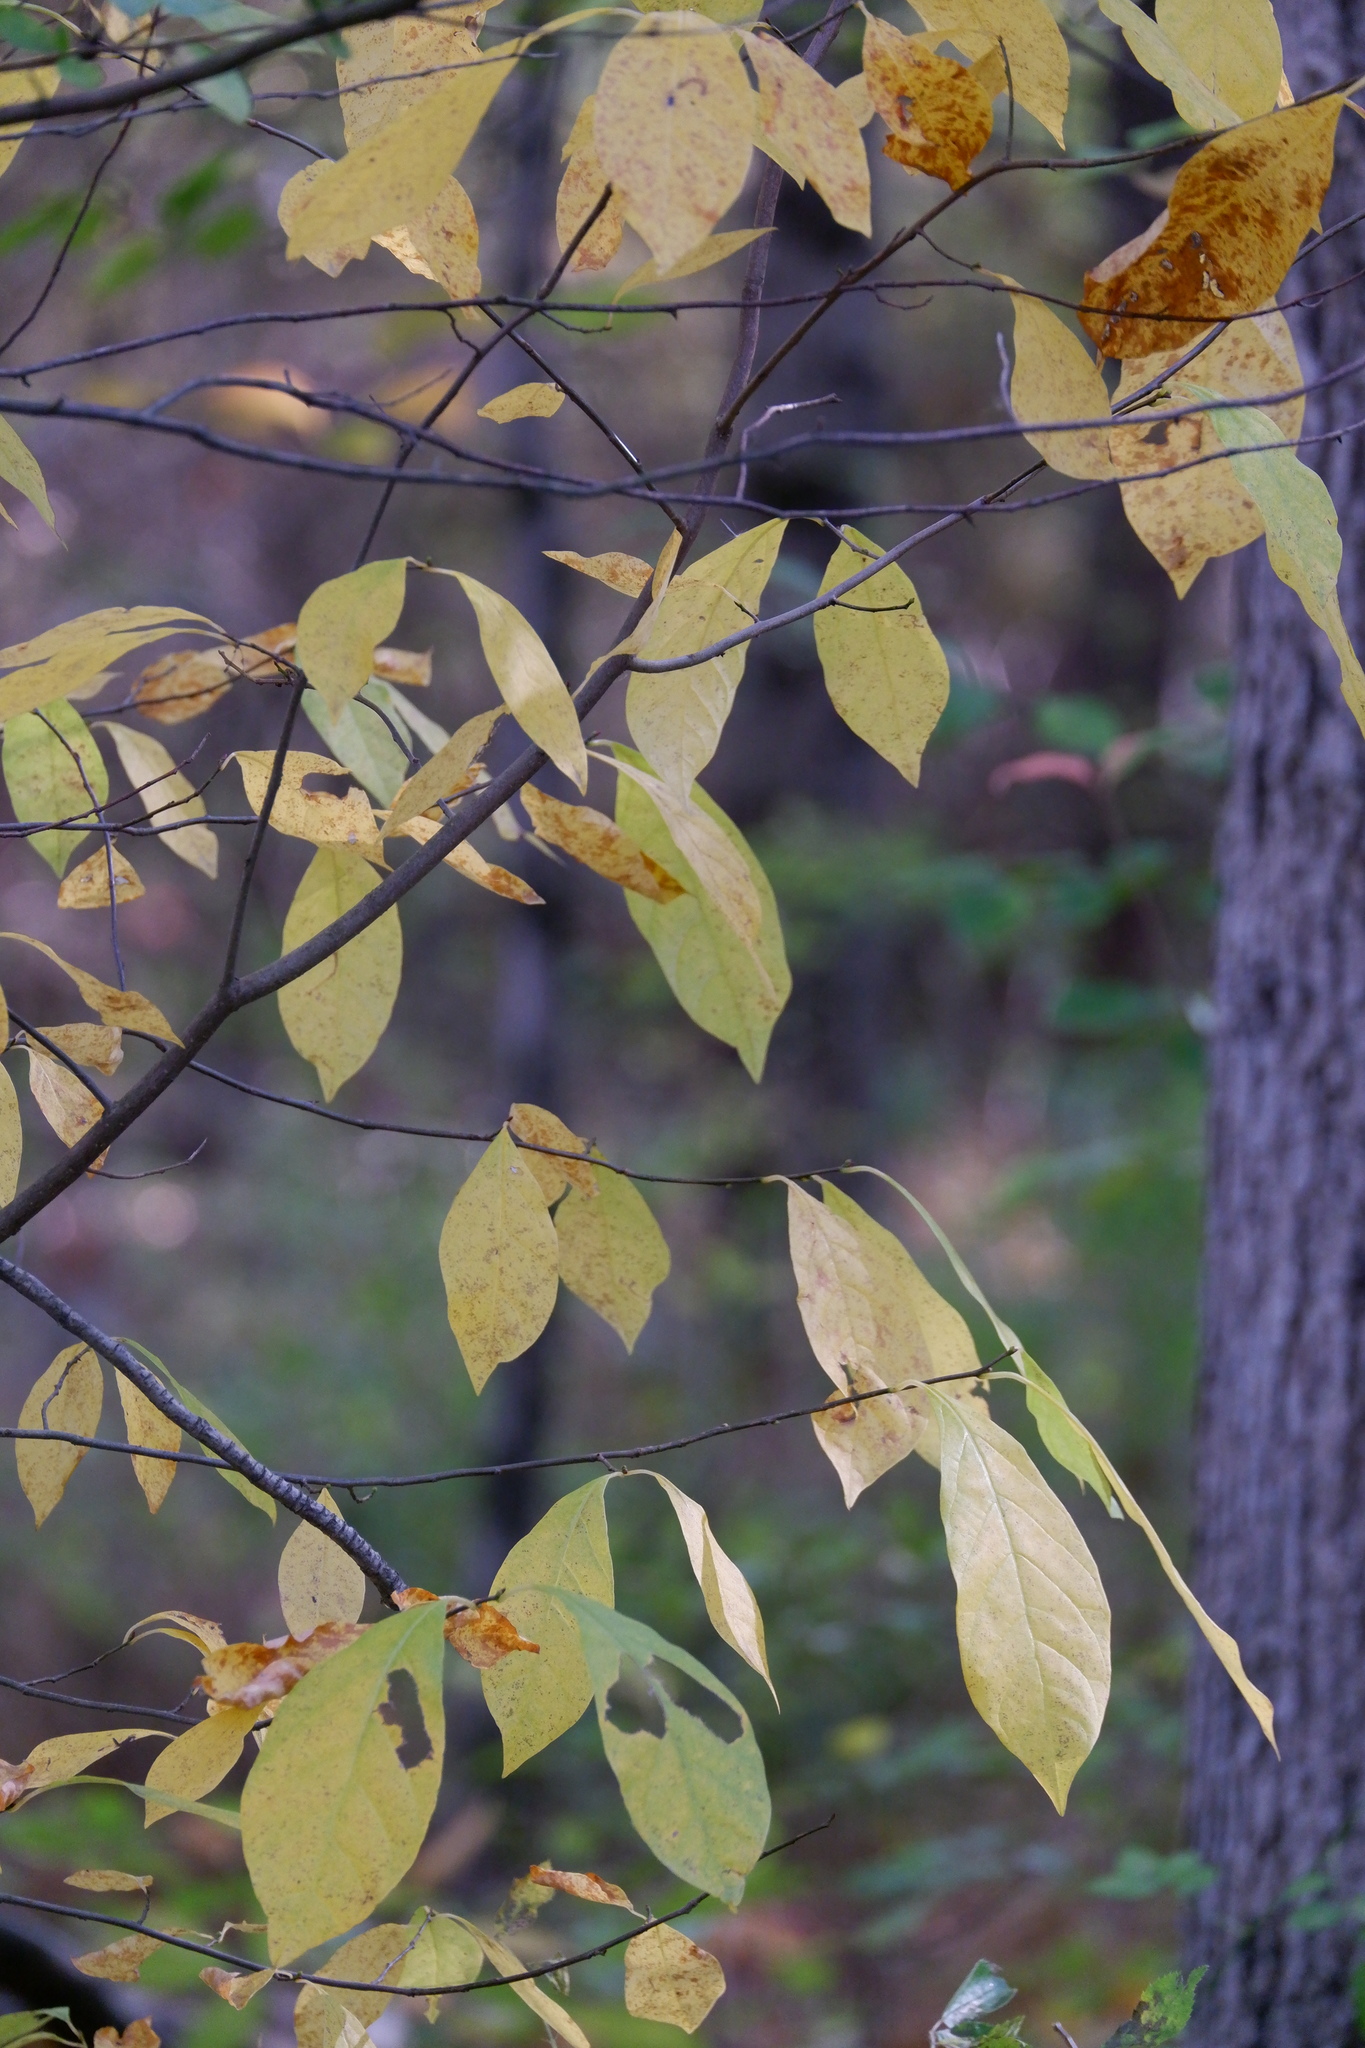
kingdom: Plantae
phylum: Tracheophyta
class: Magnoliopsida
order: Laurales
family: Lauraceae
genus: Lindera
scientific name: Lindera benzoin
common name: Spicebush
